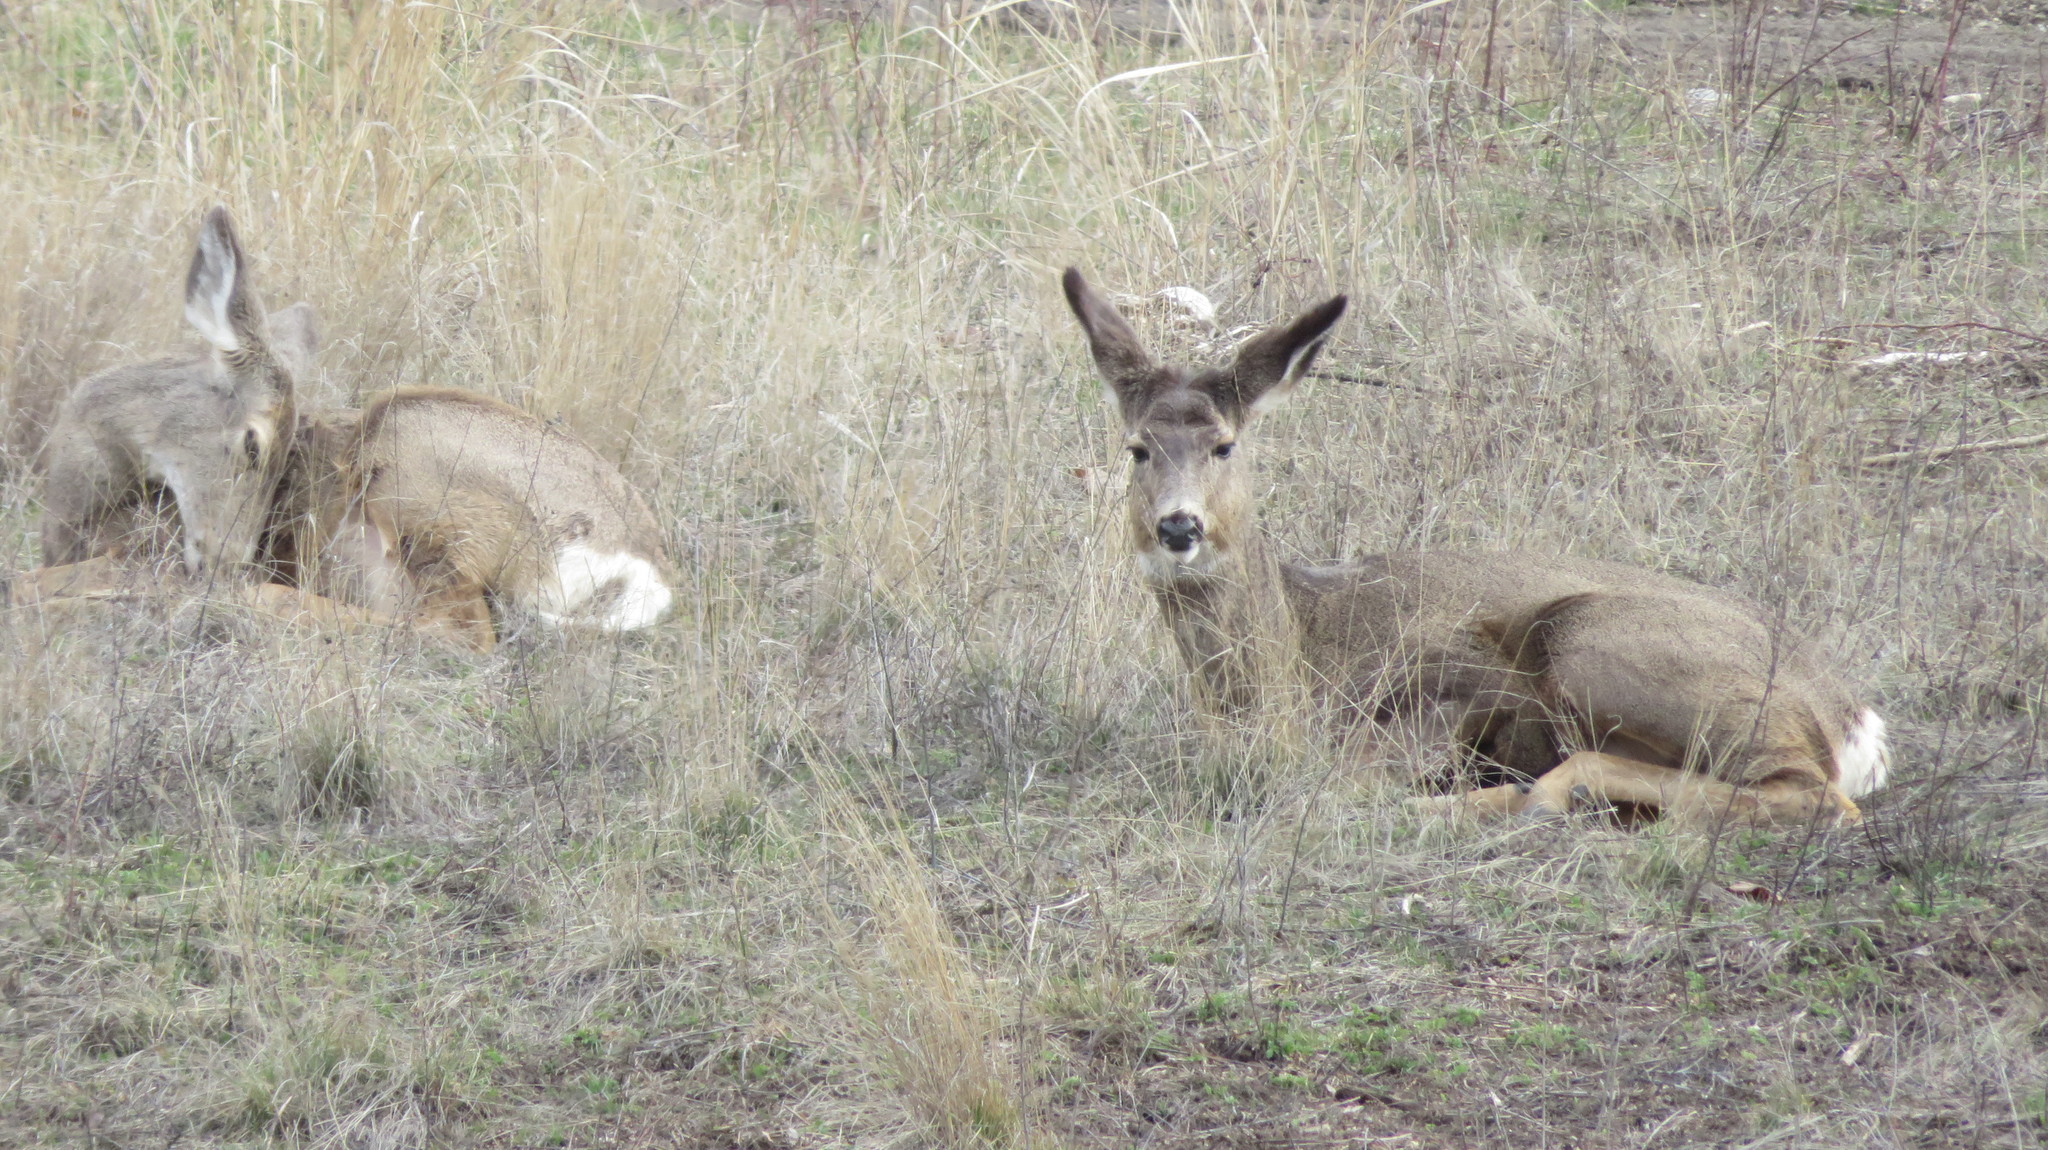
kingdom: Animalia
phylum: Chordata
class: Mammalia
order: Artiodactyla
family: Cervidae
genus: Odocoileus
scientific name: Odocoileus hemionus
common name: Mule deer
